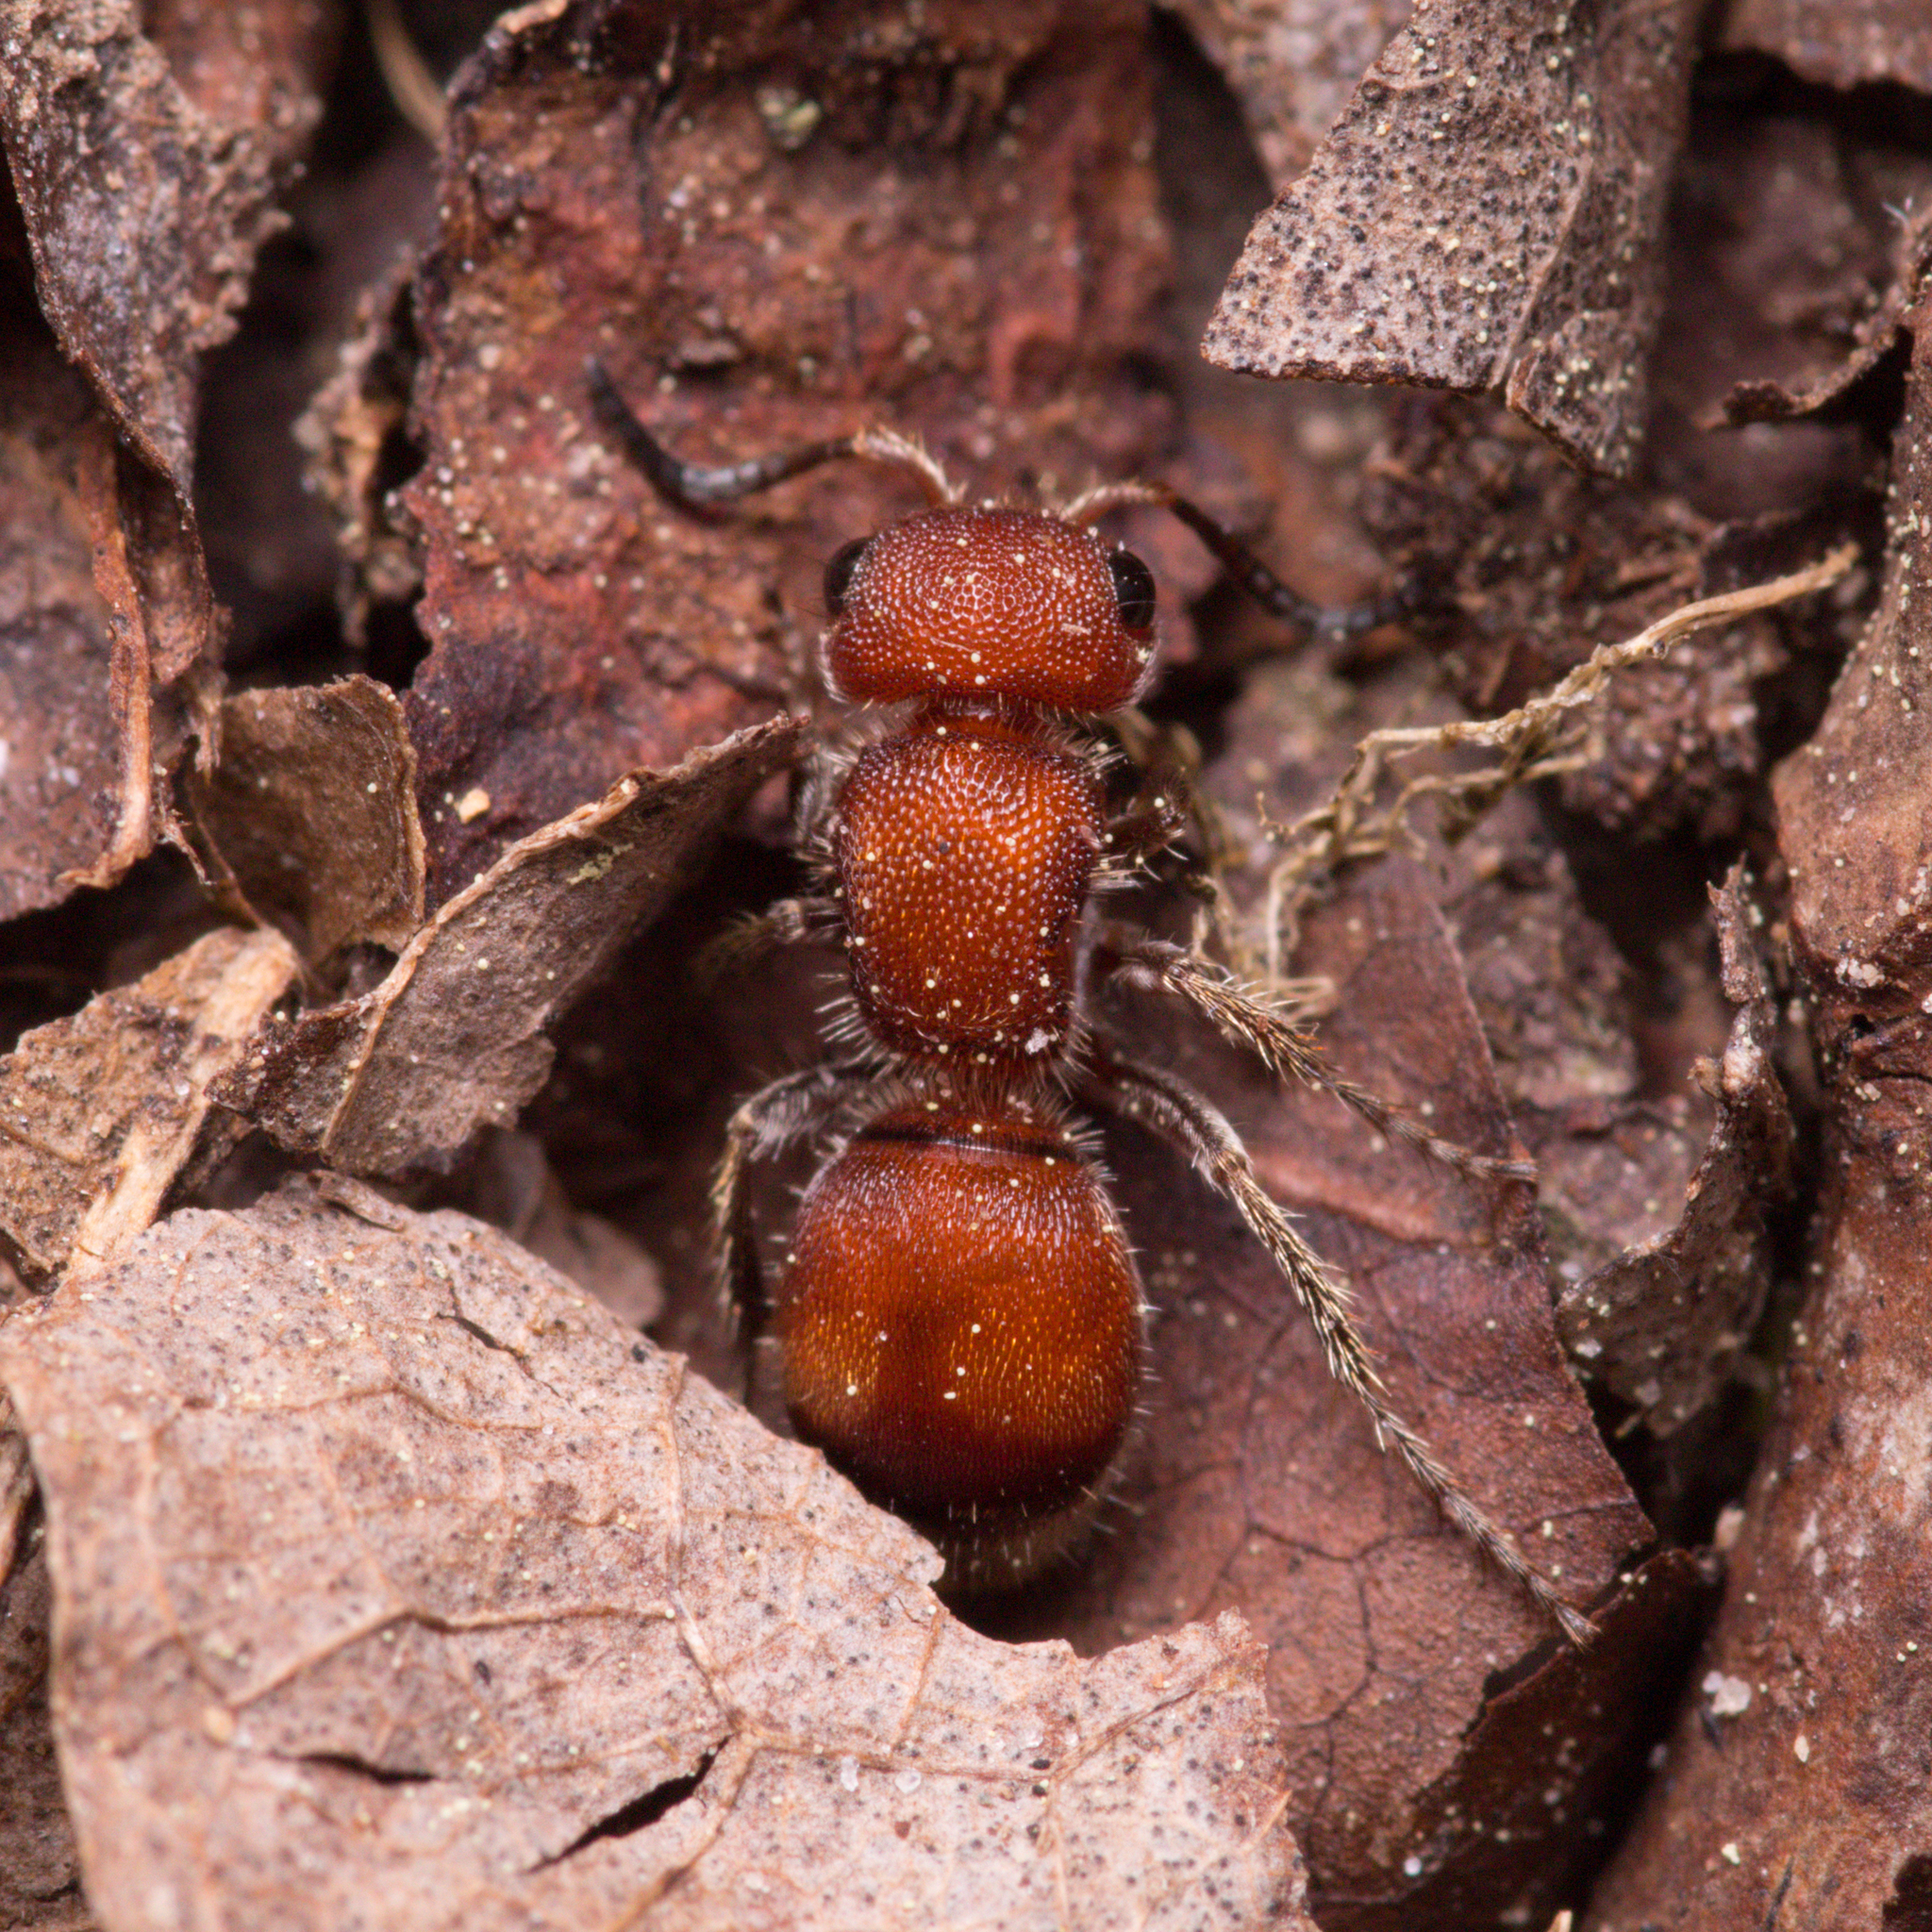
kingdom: Animalia
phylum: Arthropoda
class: Insecta
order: Hymenoptera
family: Mutillidae
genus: Pseudomethoca
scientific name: Pseudomethoca
